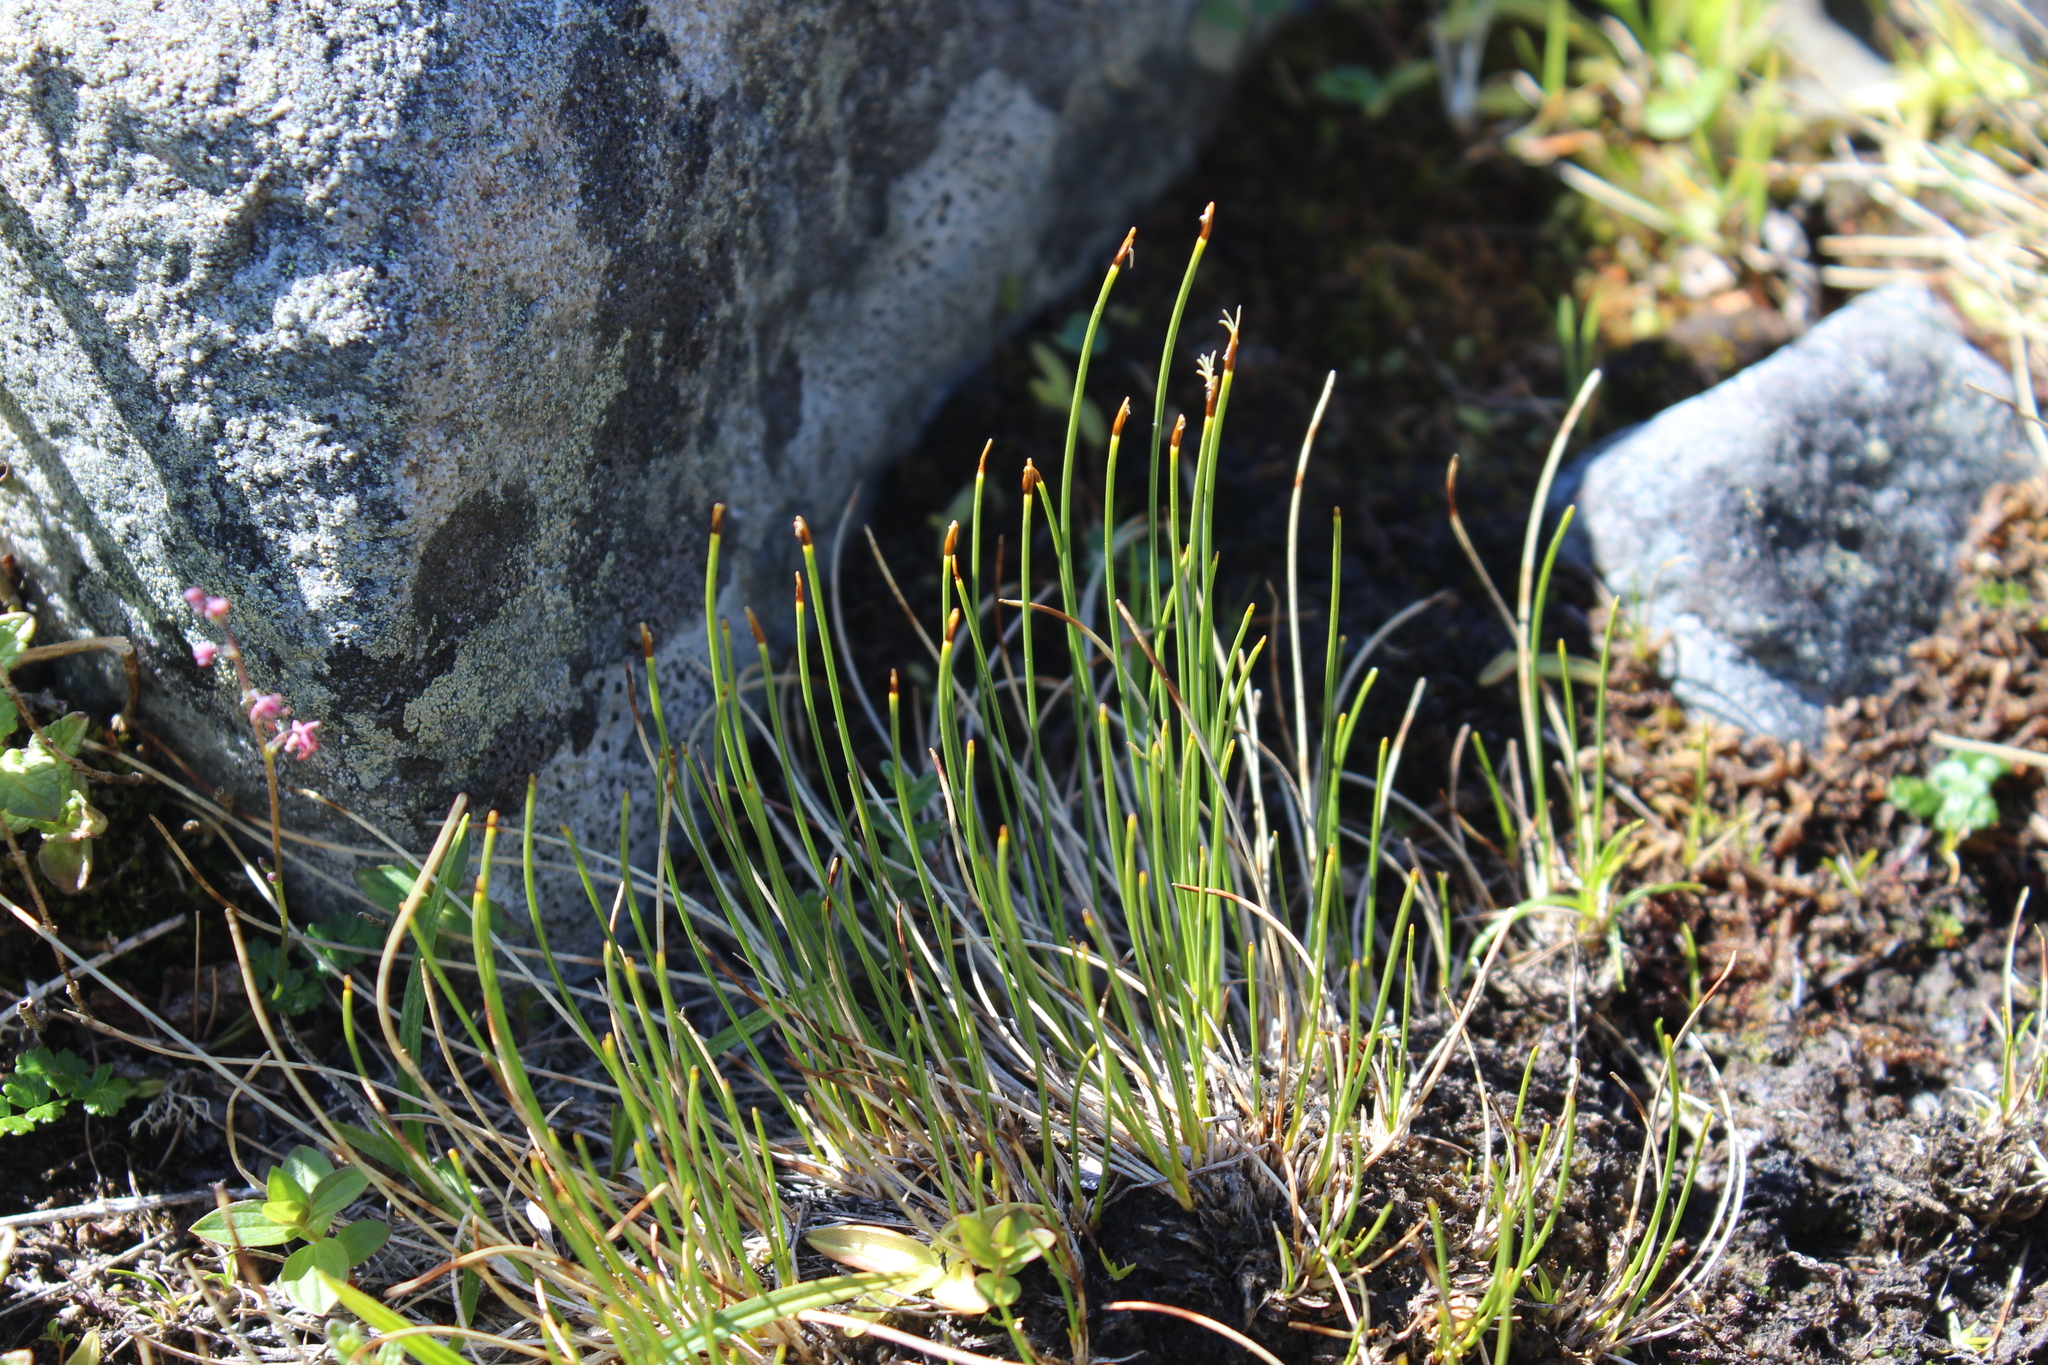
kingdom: Plantae
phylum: Tracheophyta
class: Liliopsida
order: Poales
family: Cyperaceae
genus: Trichophorum
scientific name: Trichophorum cespitosum
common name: Cespitose bulrush
